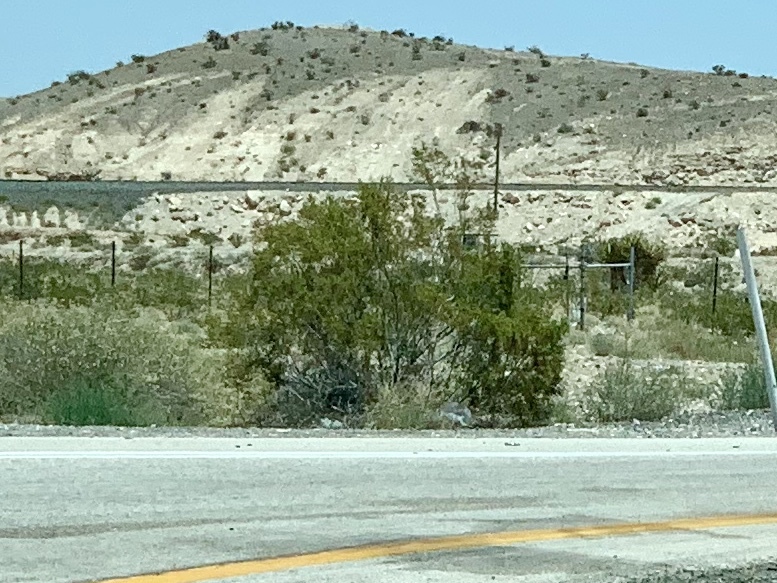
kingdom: Plantae
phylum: Tracheophyta
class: Magnoliopsida
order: Zygophyllales
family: Zygophyllaceae
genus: Larrea
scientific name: Larrea tridentata
